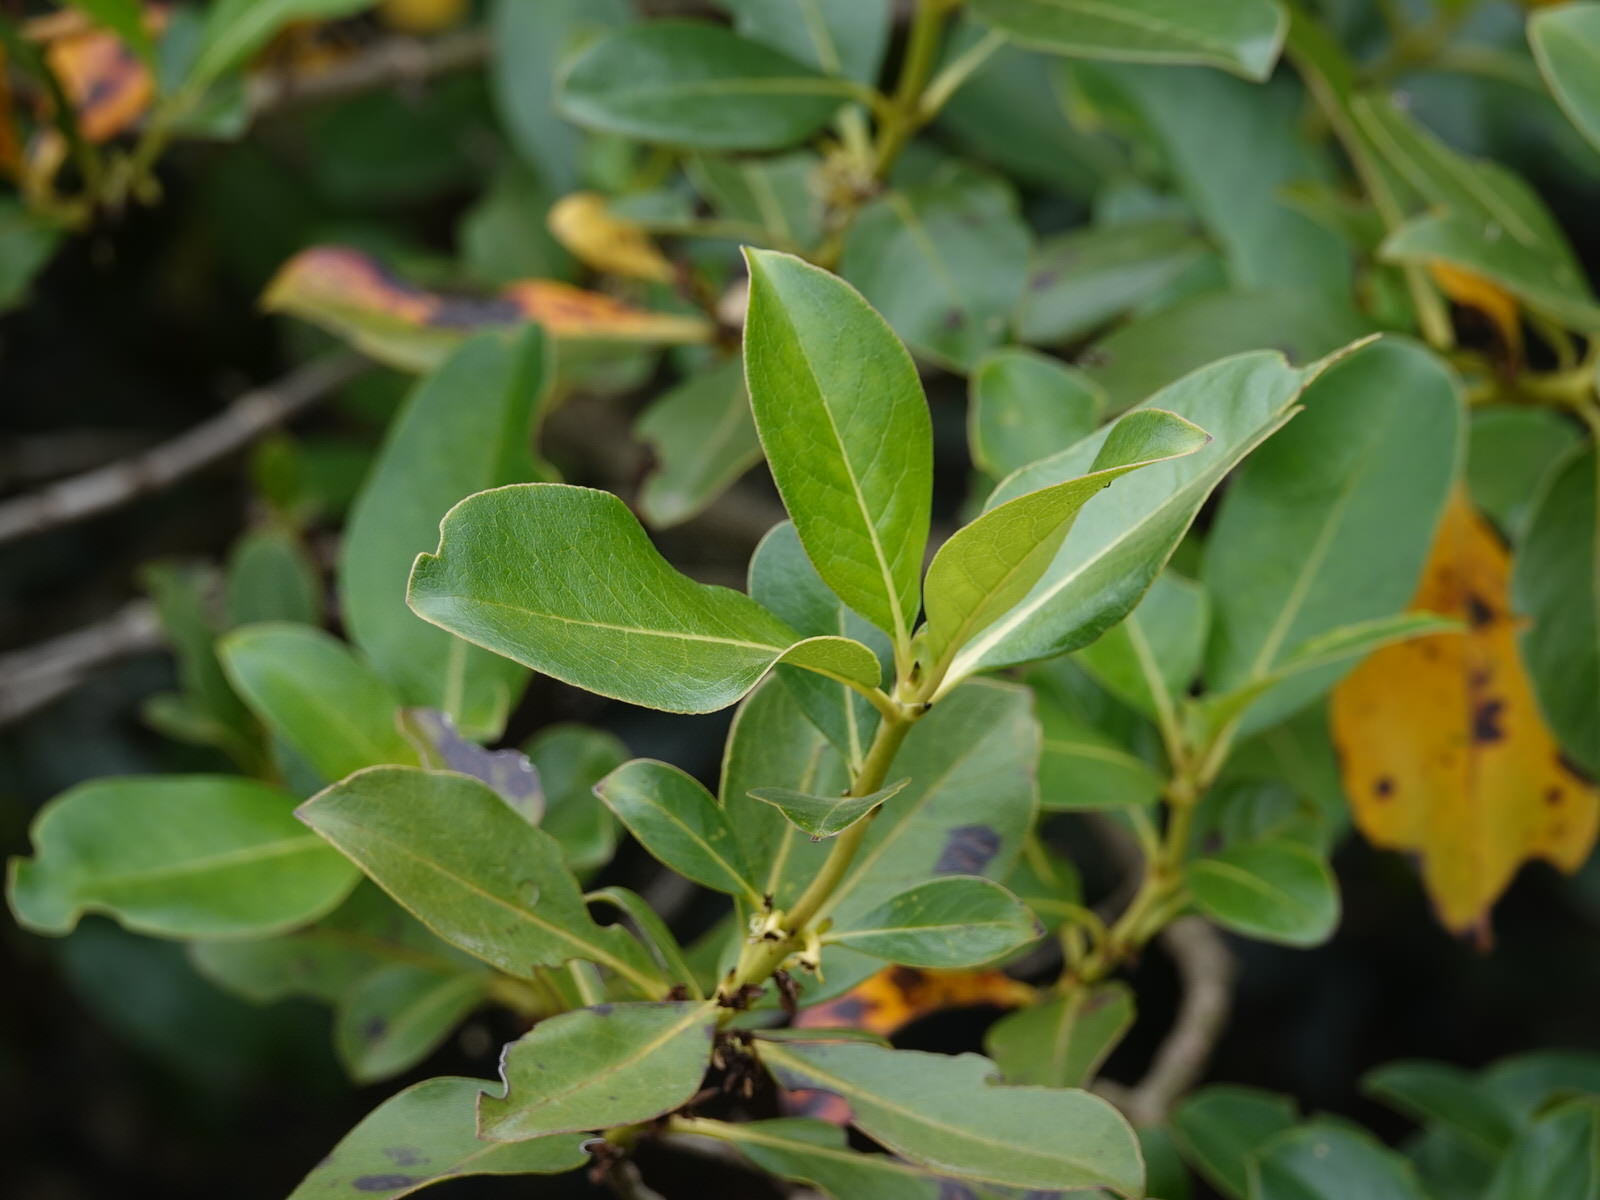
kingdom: Plantae
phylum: Tracheophyta
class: Magnoliopsida
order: Gentianales
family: Rubiaceae
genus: Coprosma
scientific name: Coprosma robusta
